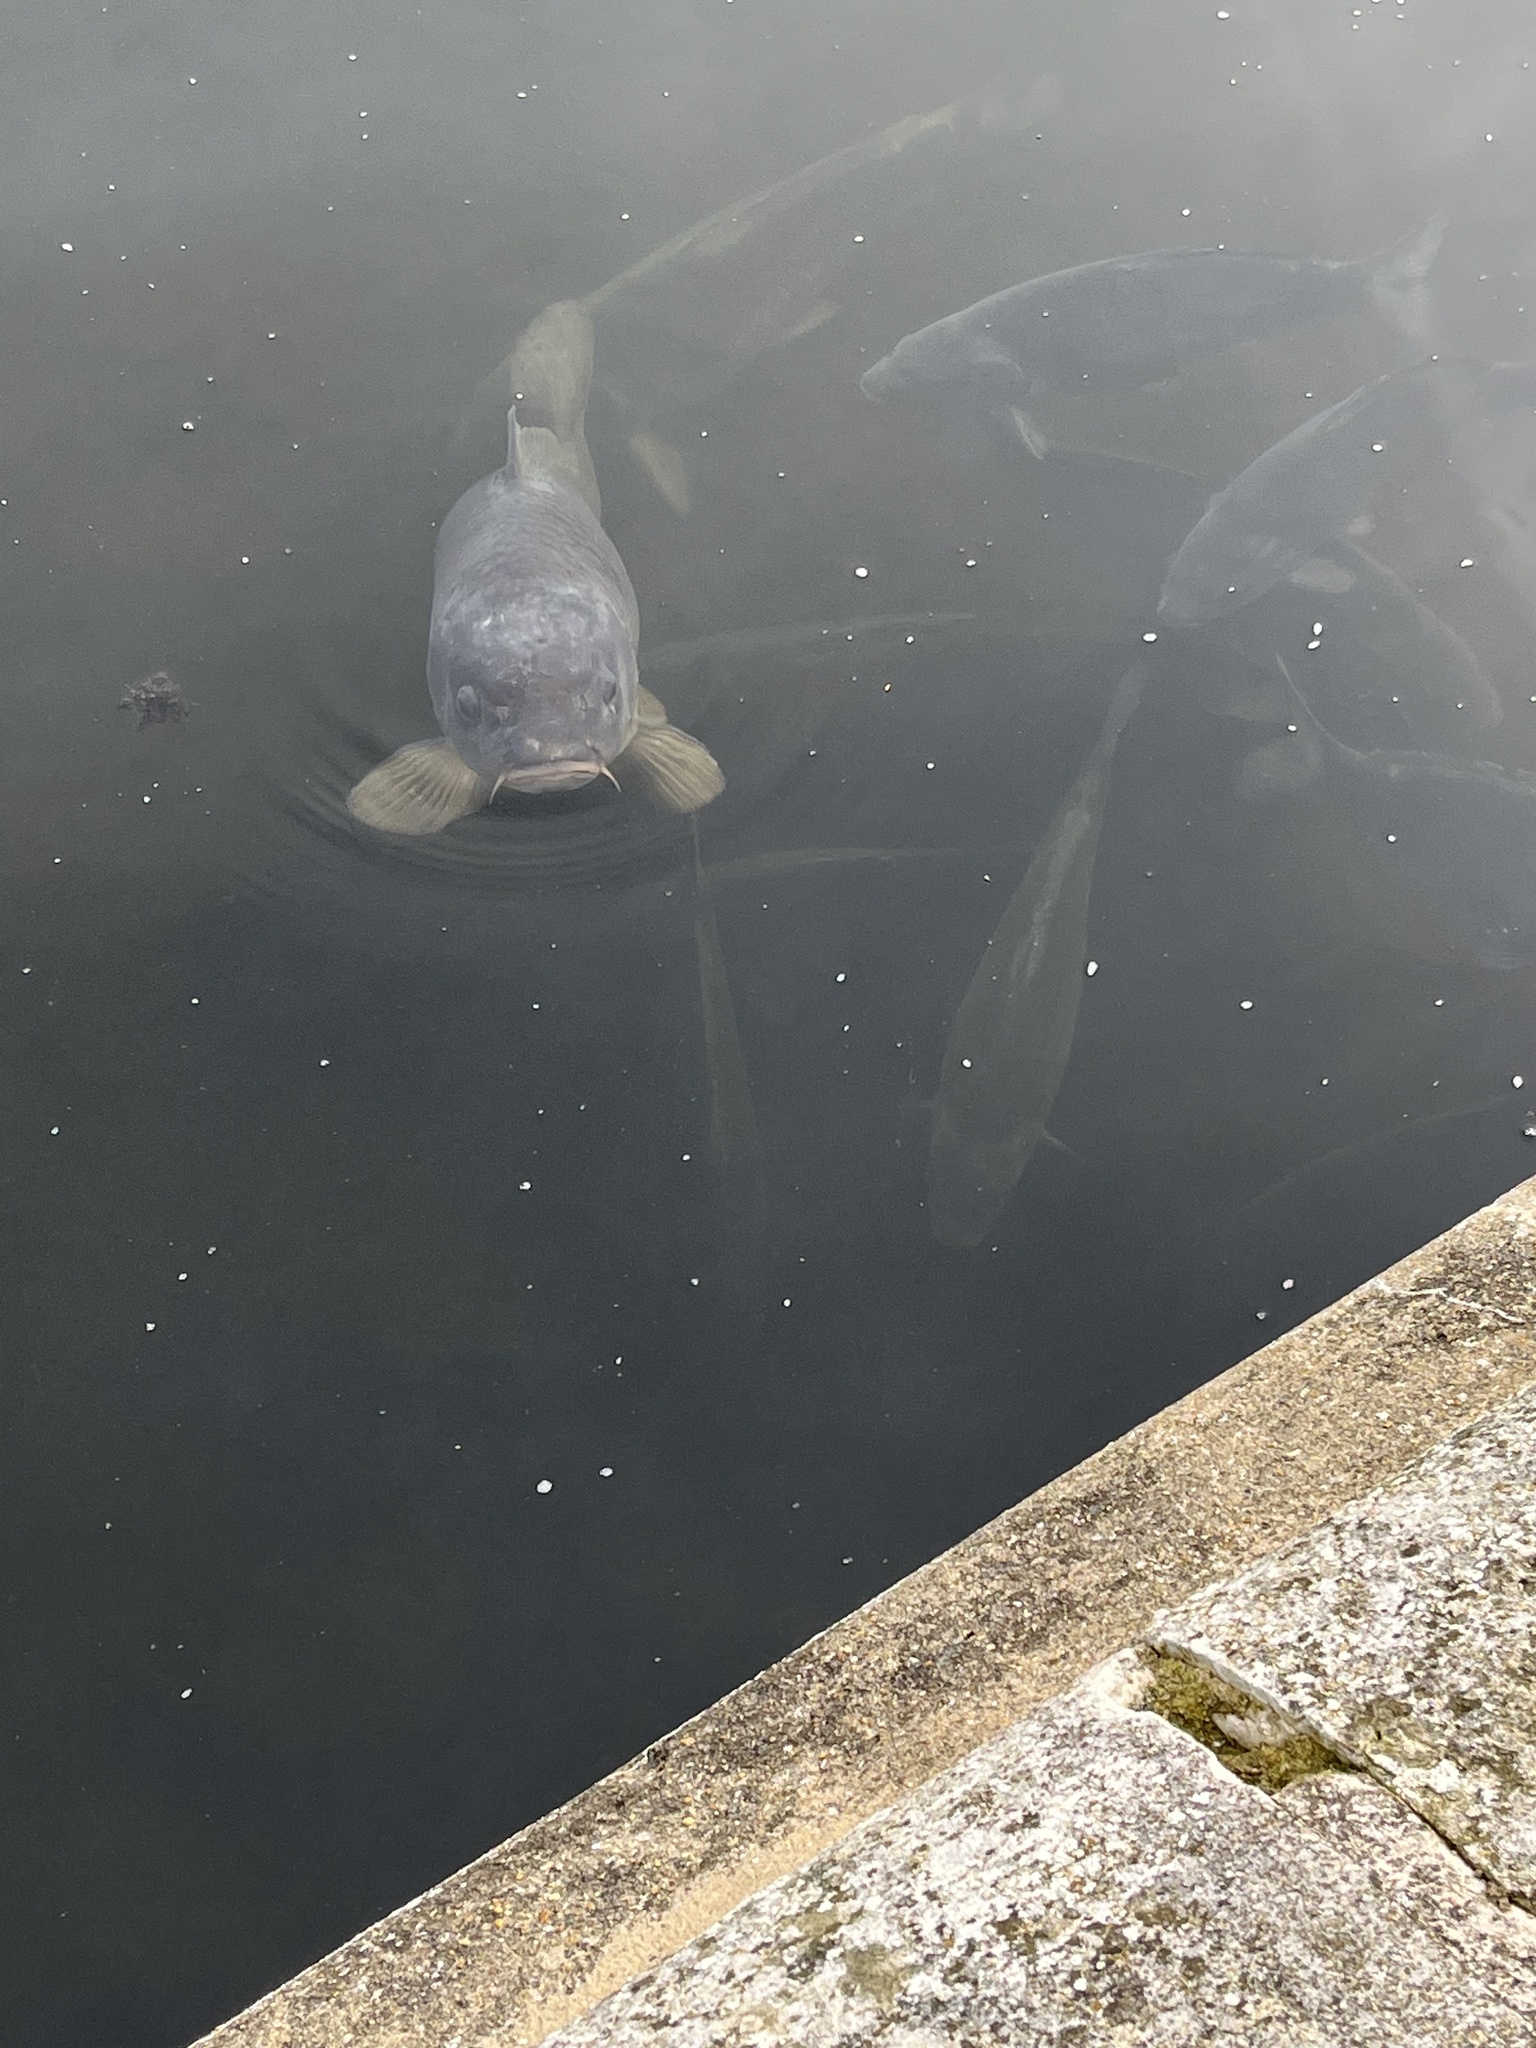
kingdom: Animalia
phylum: Chordata
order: Cypriniformes
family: Cyprinidae
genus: Cyprinus
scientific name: Cyprinus carpio
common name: Common carp
